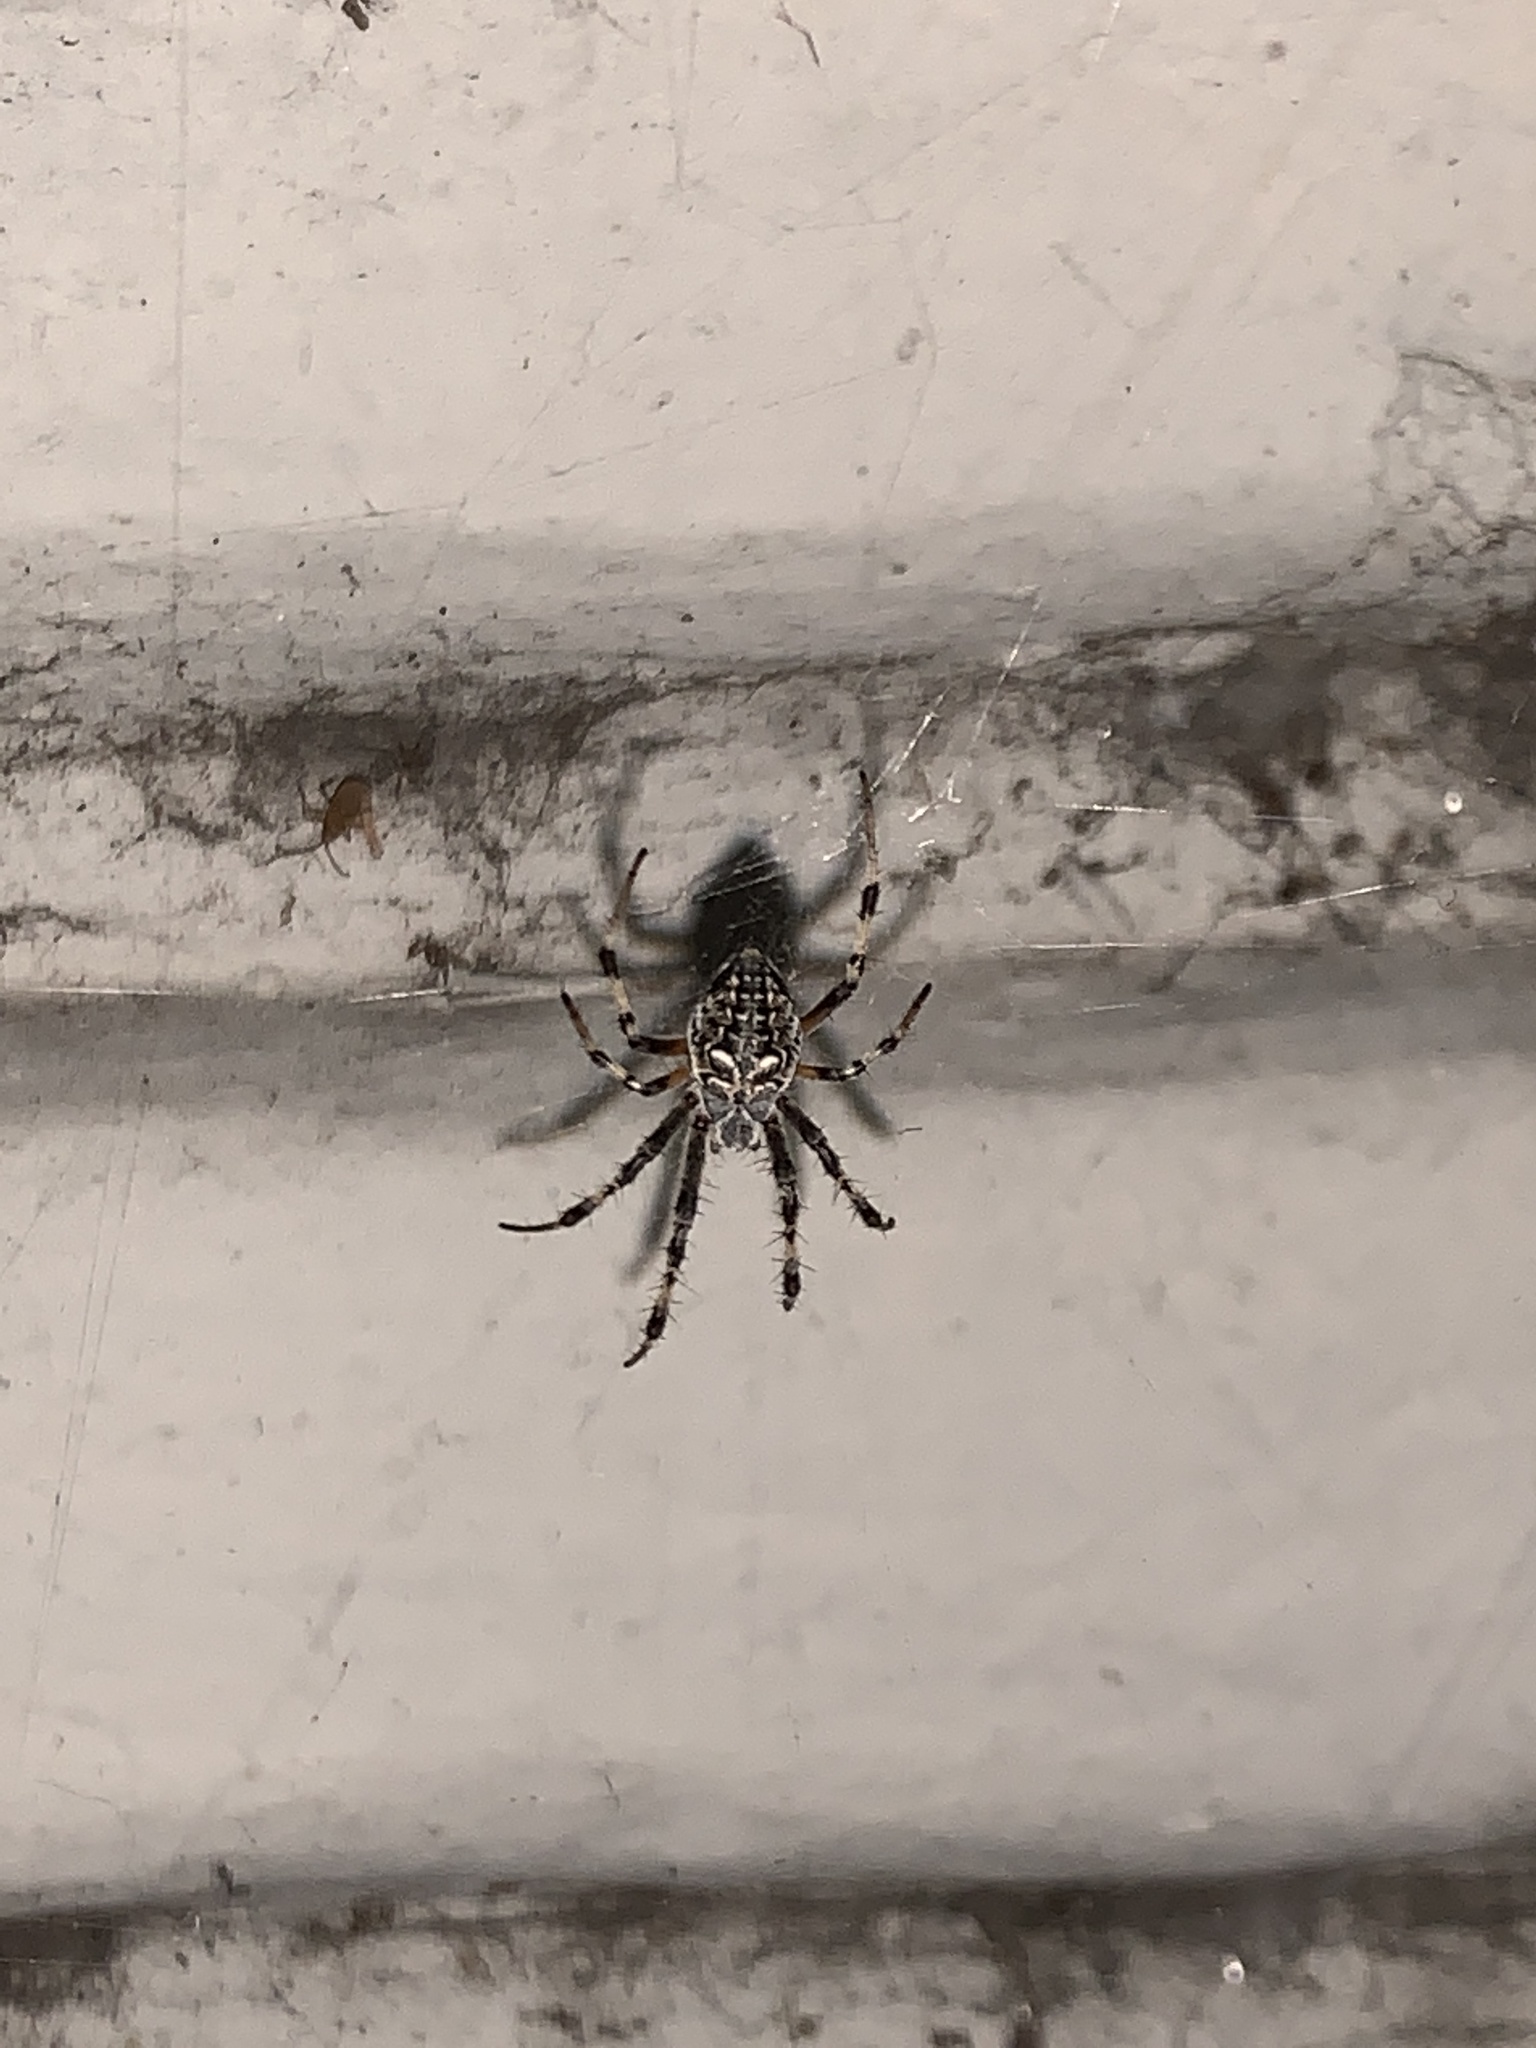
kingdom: Animalia
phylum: Arthropoda
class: Arachnida
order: Araneae
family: Araneidae
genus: Metepeira
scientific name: Metepeira
